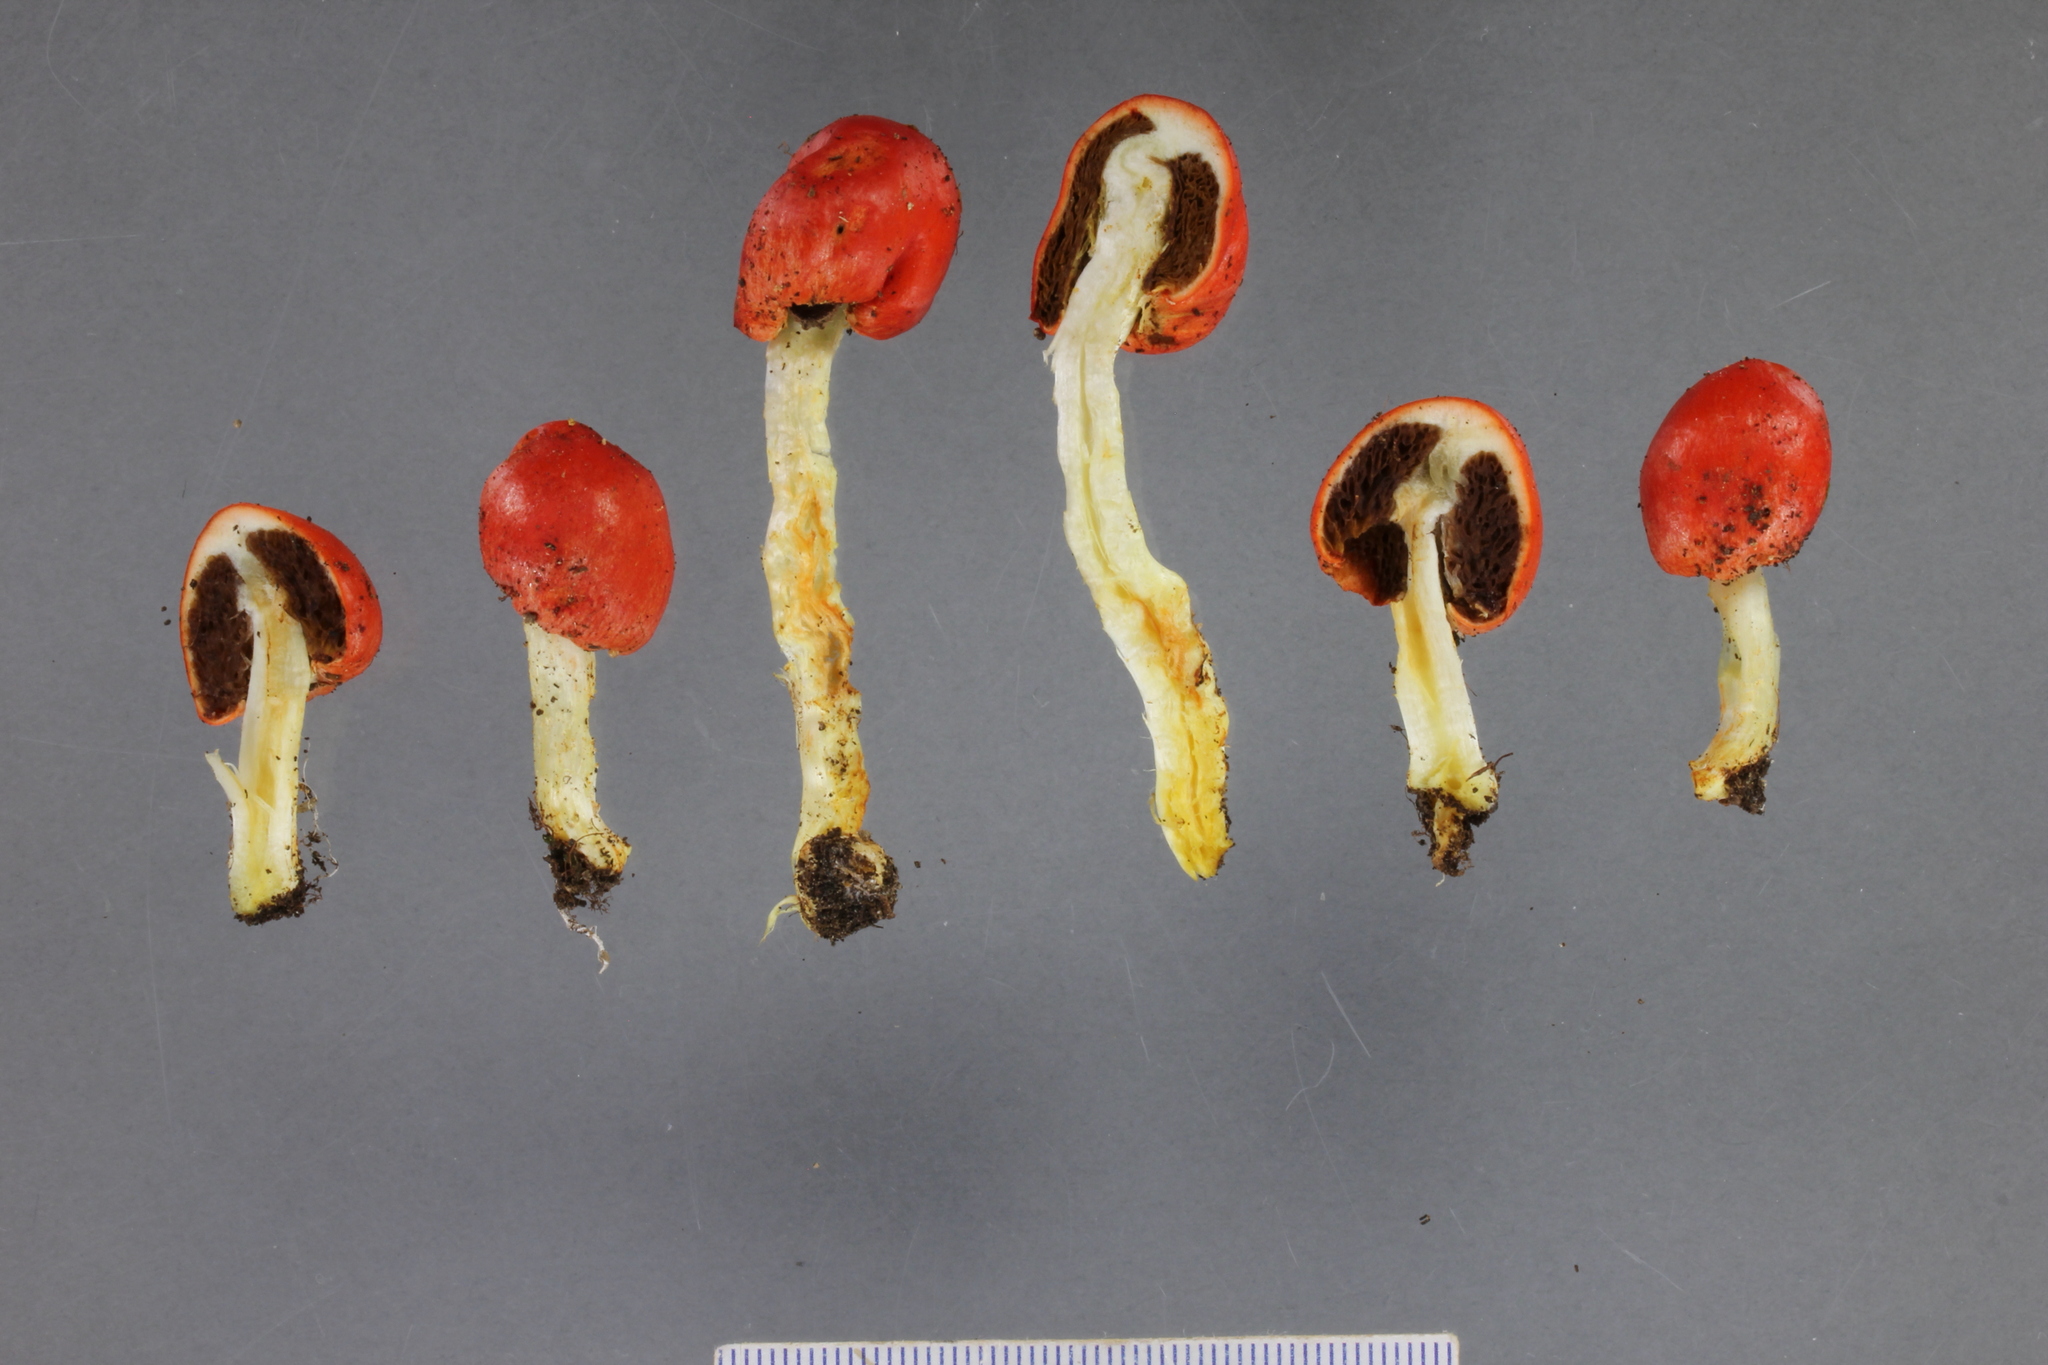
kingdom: Fungi
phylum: Basidiomycota
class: Agaricomycetes
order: Agaricales
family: Strophariaceae
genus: Leratiomyces
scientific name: Leratiomyces erythrocephalus
